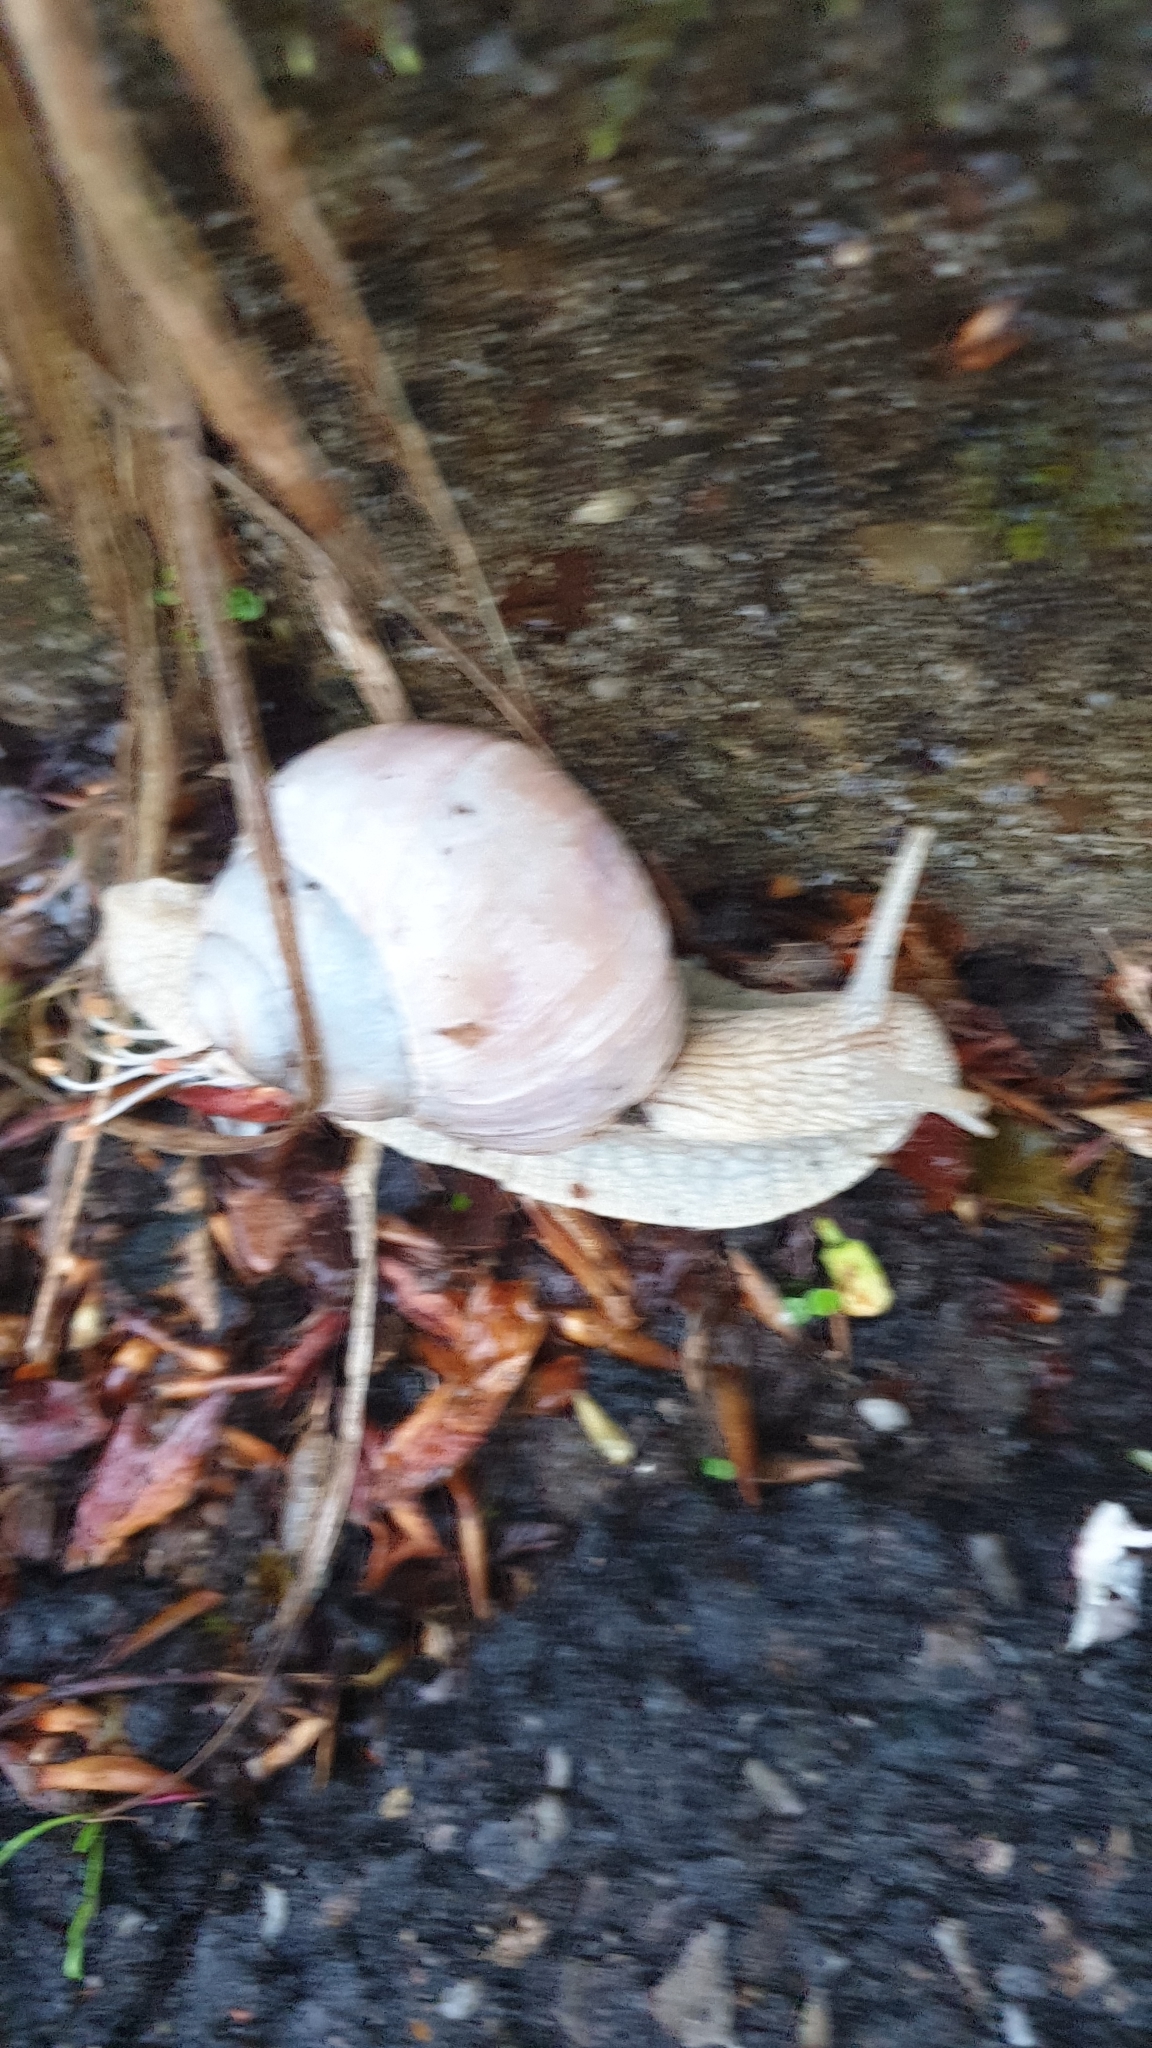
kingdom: Animalia
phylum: Mollusca
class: Gastropoda
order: Stylommatophora
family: Helicidae
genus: Helix
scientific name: Helix pomatia
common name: Roman snail
